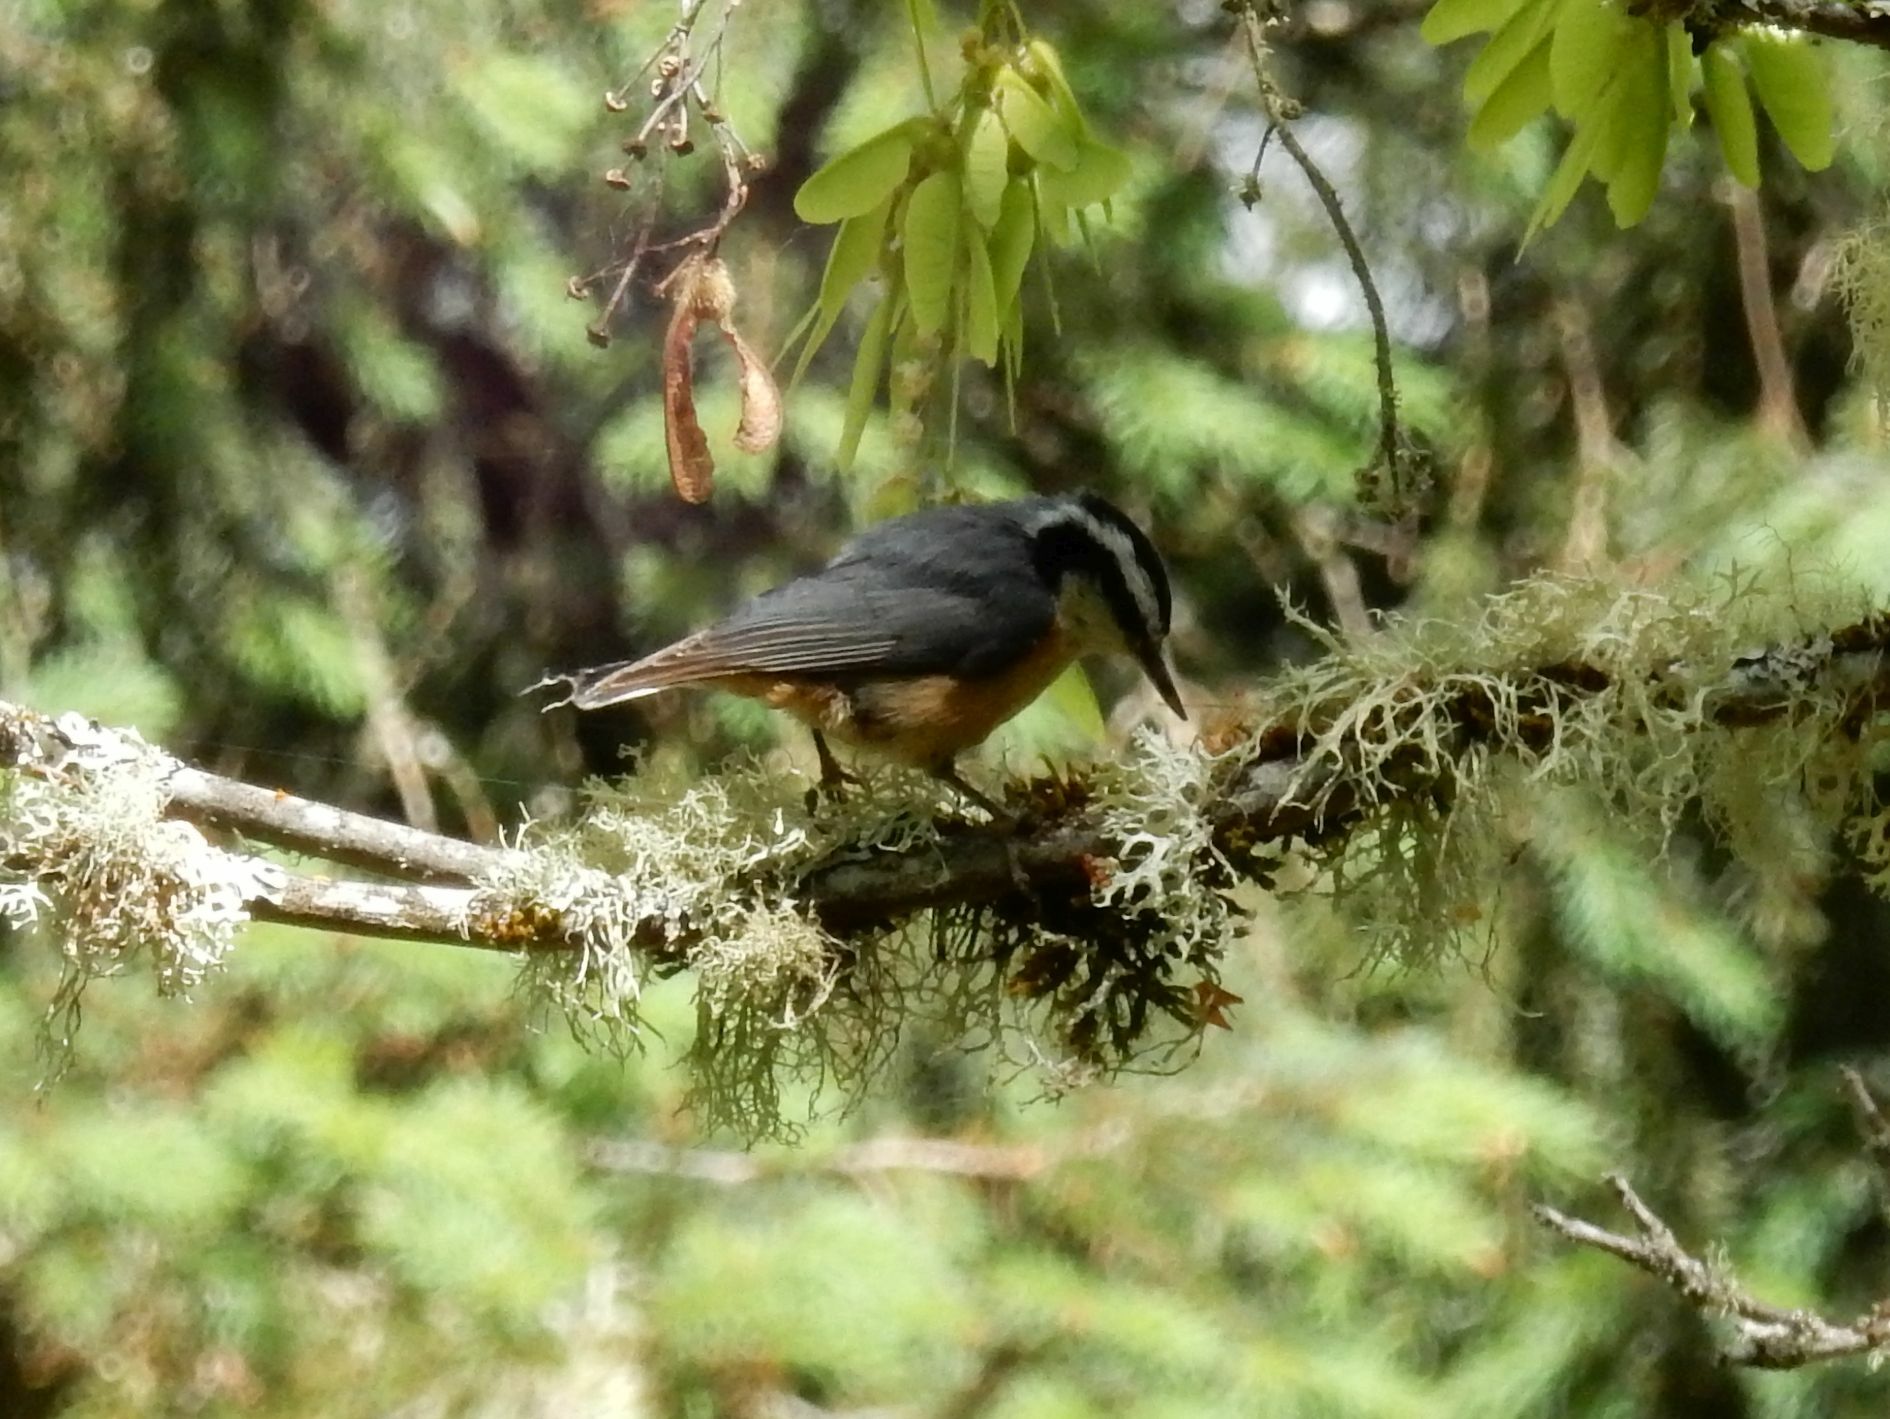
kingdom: Animalia
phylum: Chordata
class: Aves
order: Passeriformes
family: Sittidae
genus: Sitta
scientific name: Sitta canadensis
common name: Red-breasted nuthatch
